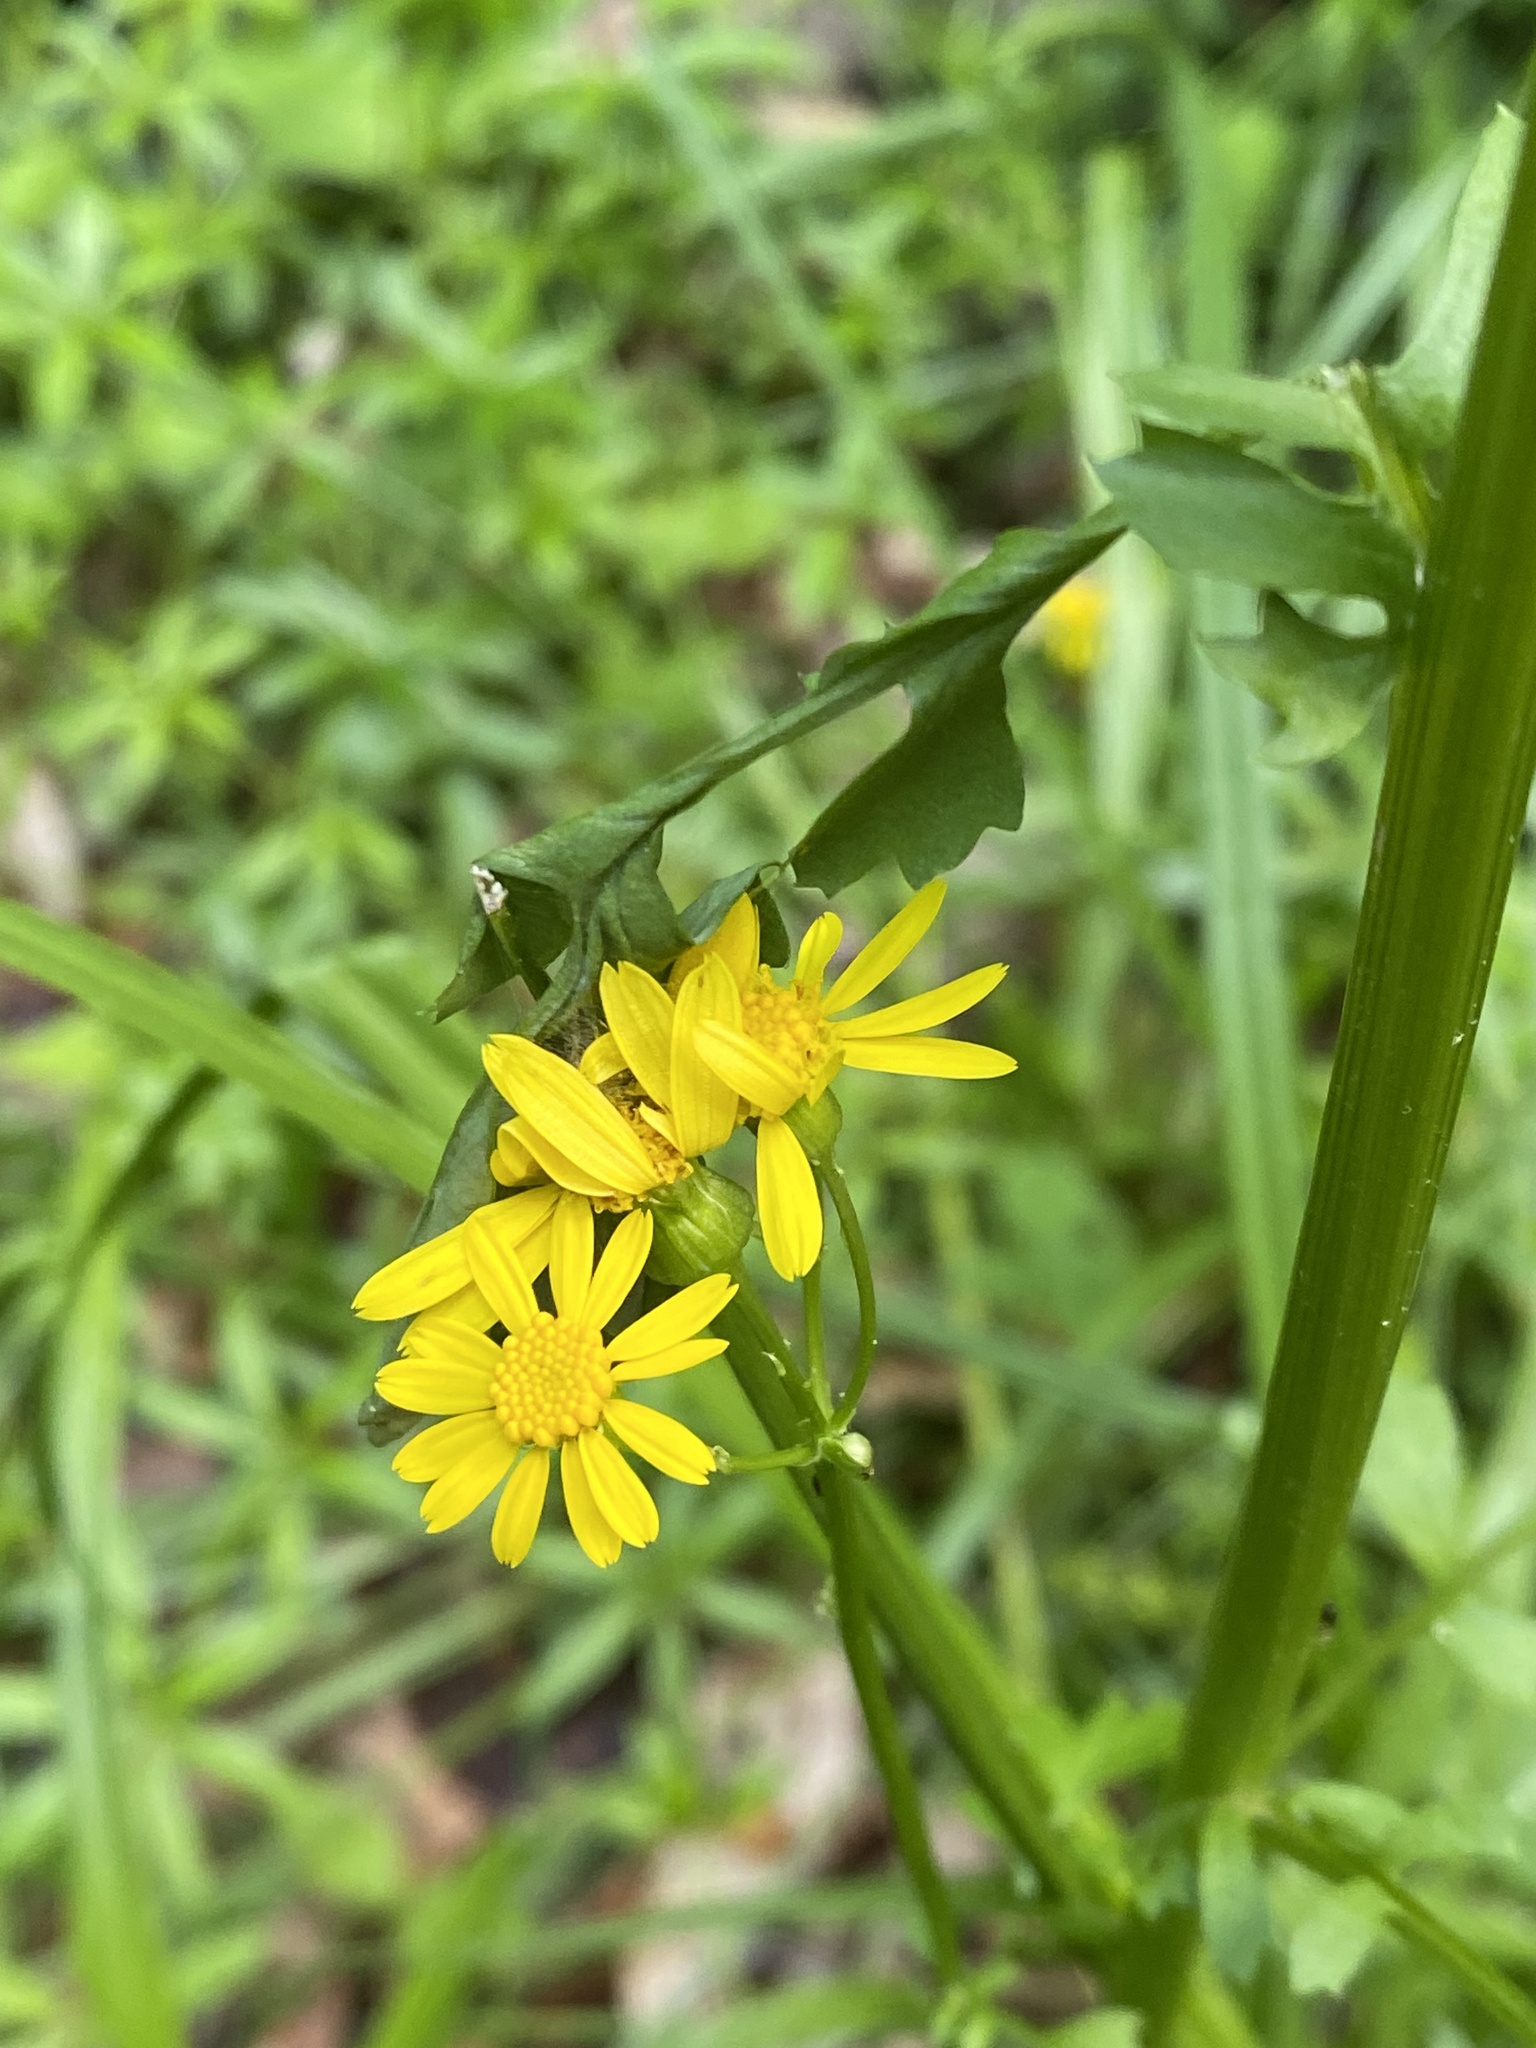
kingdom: Plantae
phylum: Tracheophyta
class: Magnoliopsida
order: Asterales
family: Asteraceae
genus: Packera
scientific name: Packera glabella
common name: Butterweed
